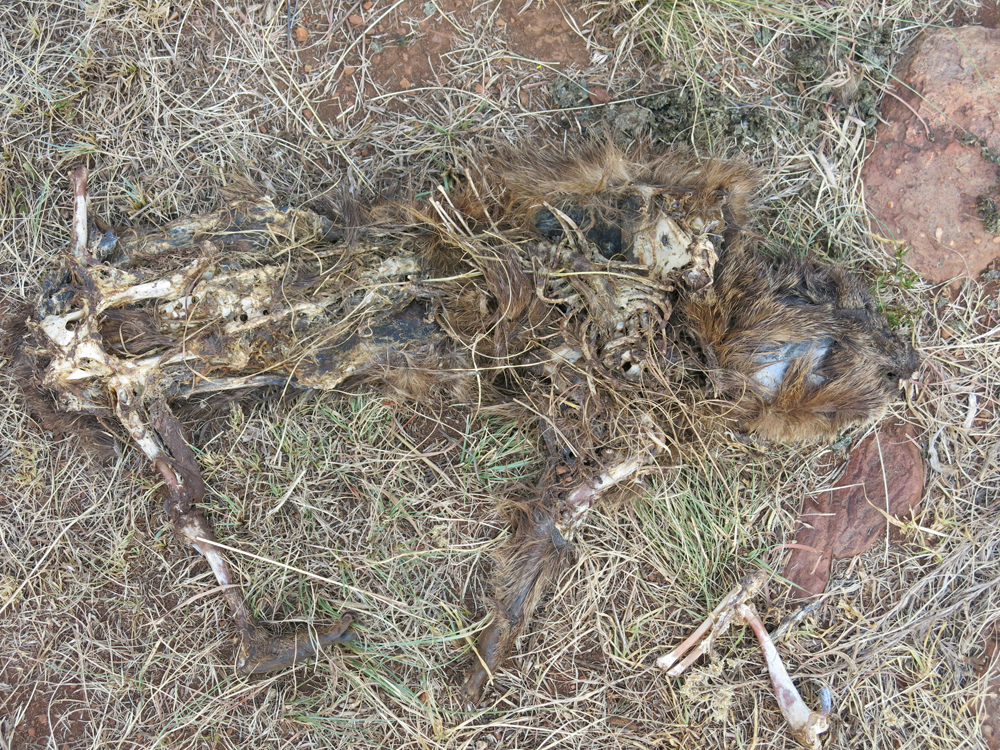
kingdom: Animalia
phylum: Chordata
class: Mammalia
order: Hyracoidea
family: Procaviidae
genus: Procavia
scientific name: Procavia capensis
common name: Rock hyrax
